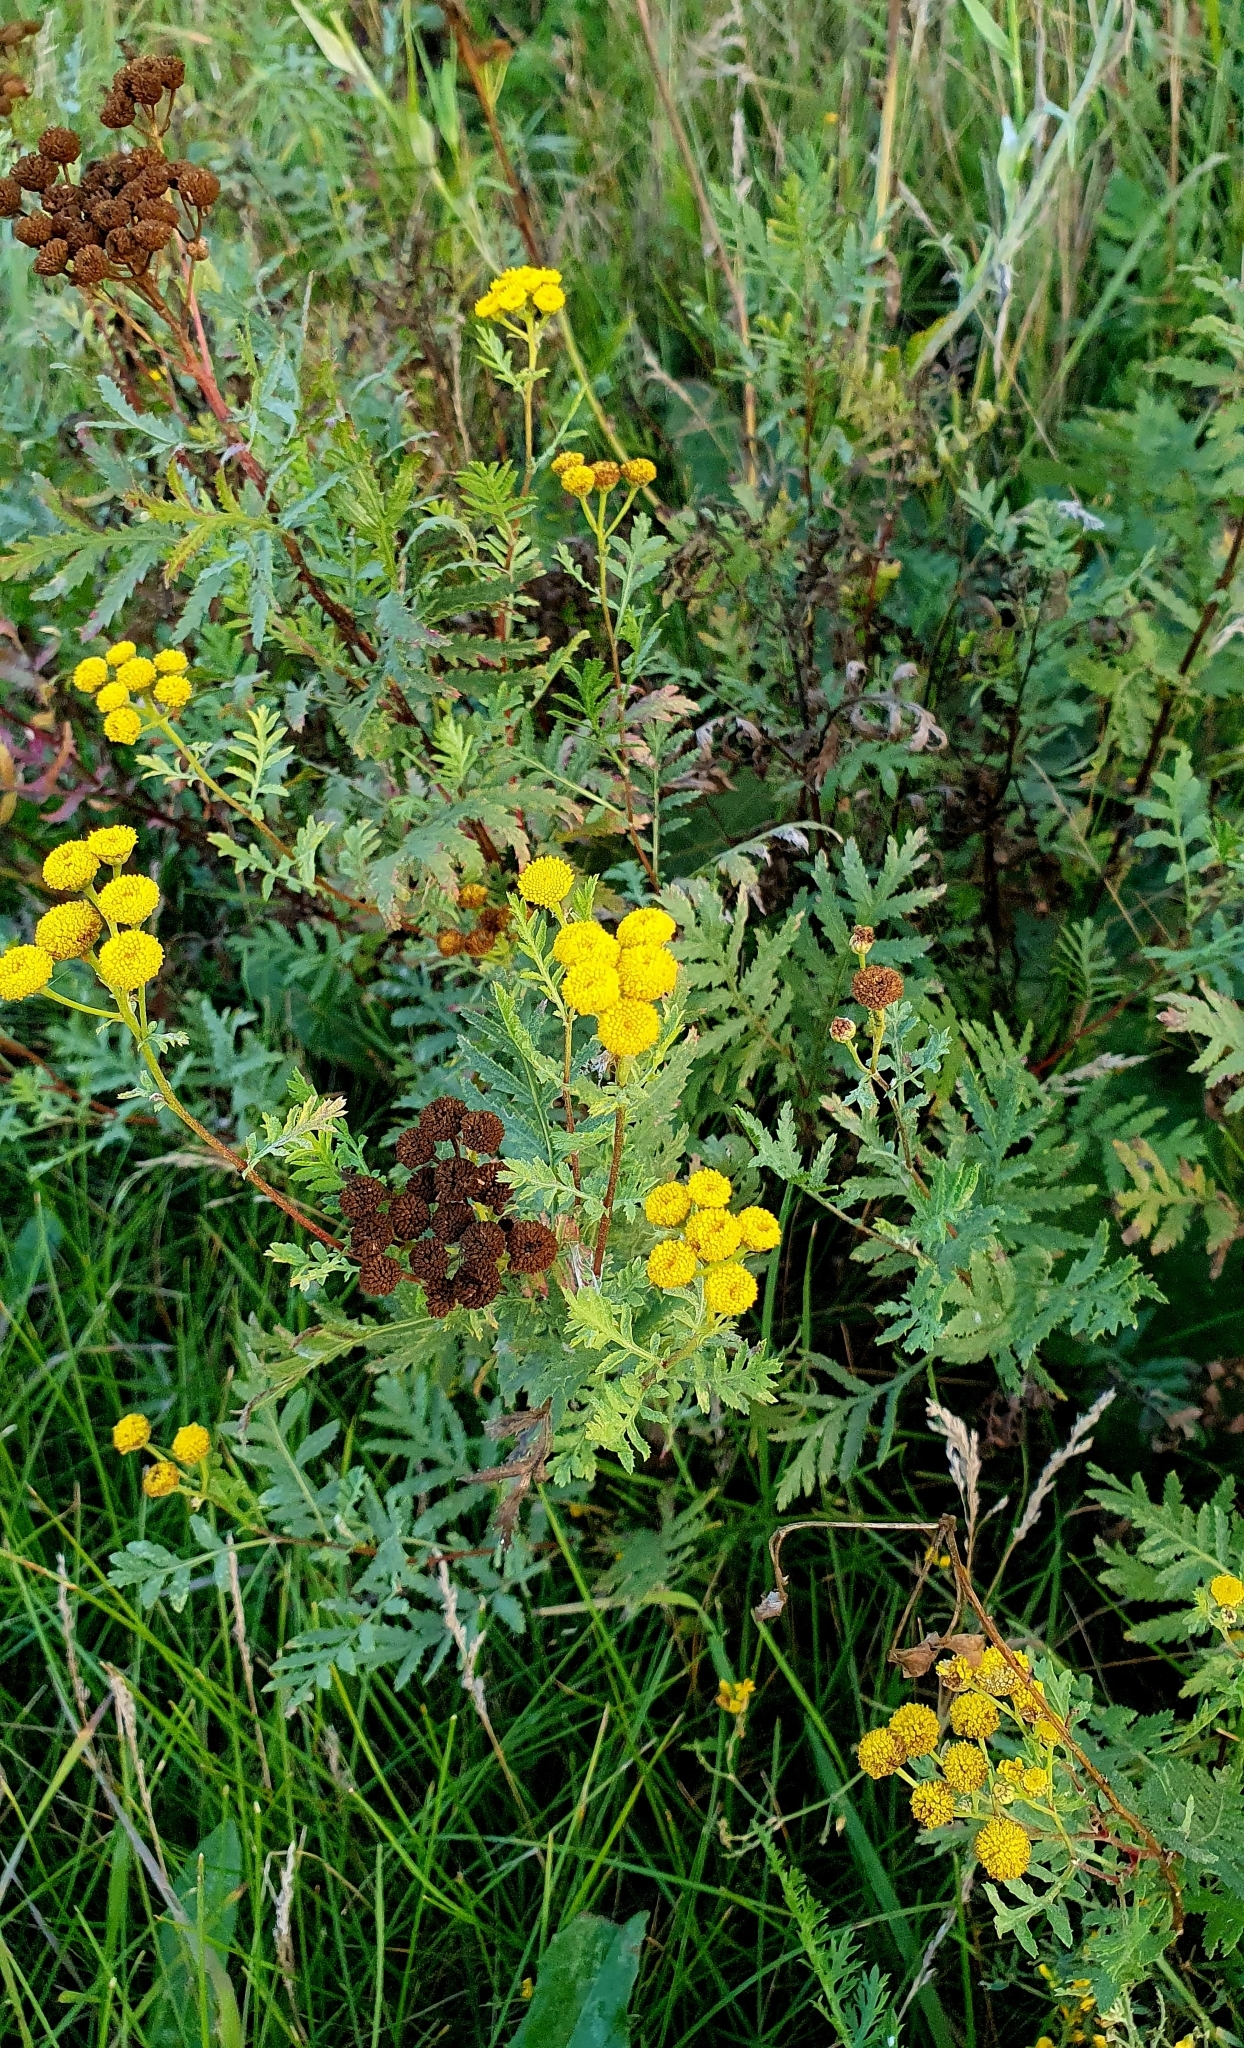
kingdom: Plantae
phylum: Tracheophyta
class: Magnoliopsida
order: Asterales
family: Asteraceae
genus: Tanacetum
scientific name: Tanacetum vulgare
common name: Common tansy
